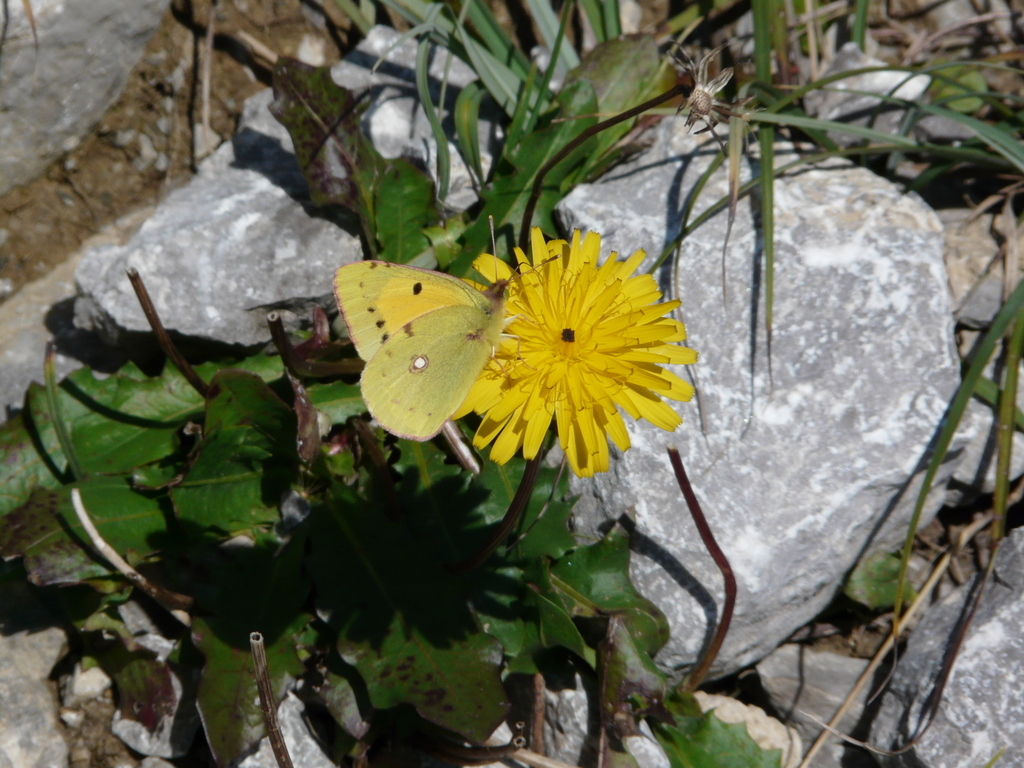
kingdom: Animalia
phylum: Arthropoda
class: Insecta
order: Lepidoptera
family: Pieridae
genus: Colias
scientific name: Colias croceus
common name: Clouded yellow
